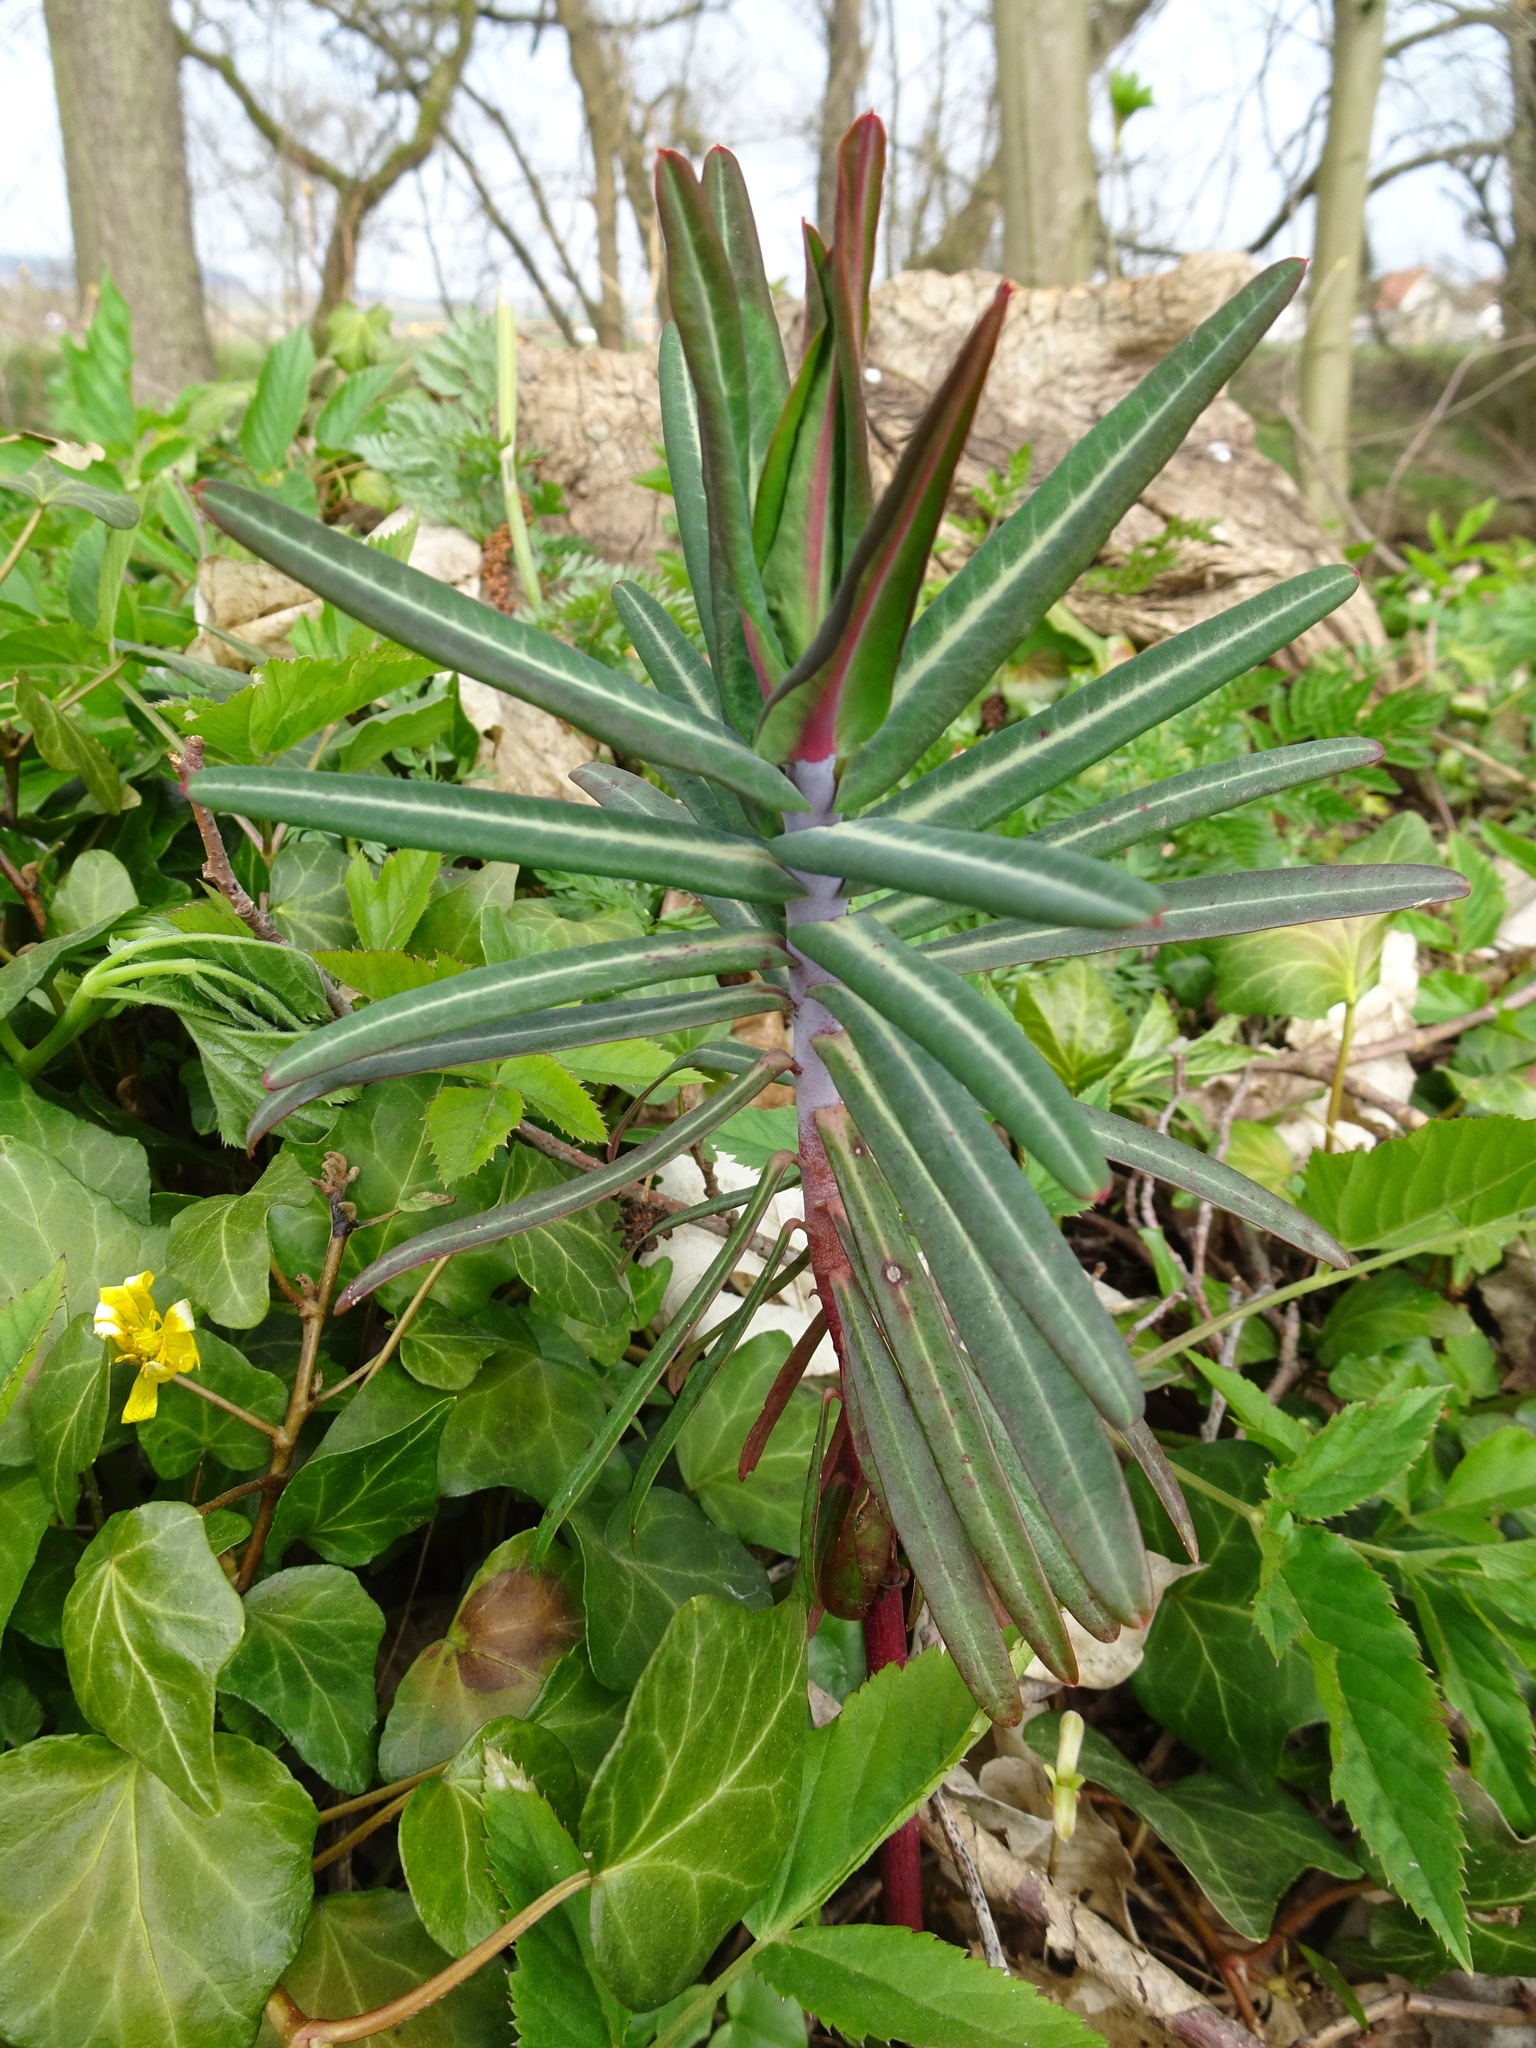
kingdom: Plantae
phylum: Tracheophyta
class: Magnoliopsida
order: Malpighiales
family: Euphorbiaceae
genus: Euphorbia
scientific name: Euphorbia lathyris
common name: Caper spurge
